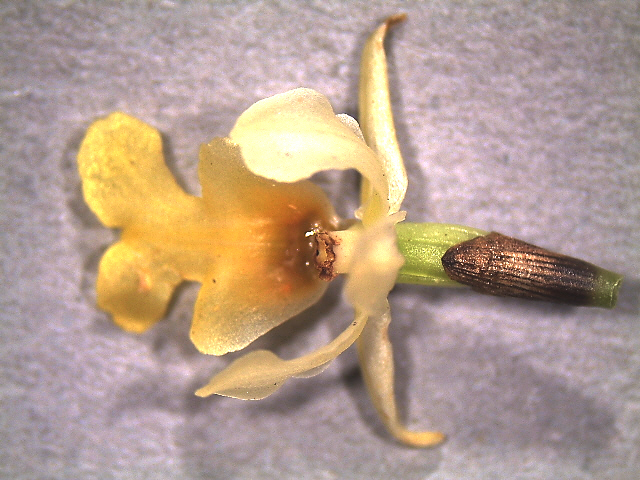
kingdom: Plantae
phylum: Tracheophyta
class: Liliopsida
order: Asparagales
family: Orchidaceae
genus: Earina
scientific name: Earina mucronata
